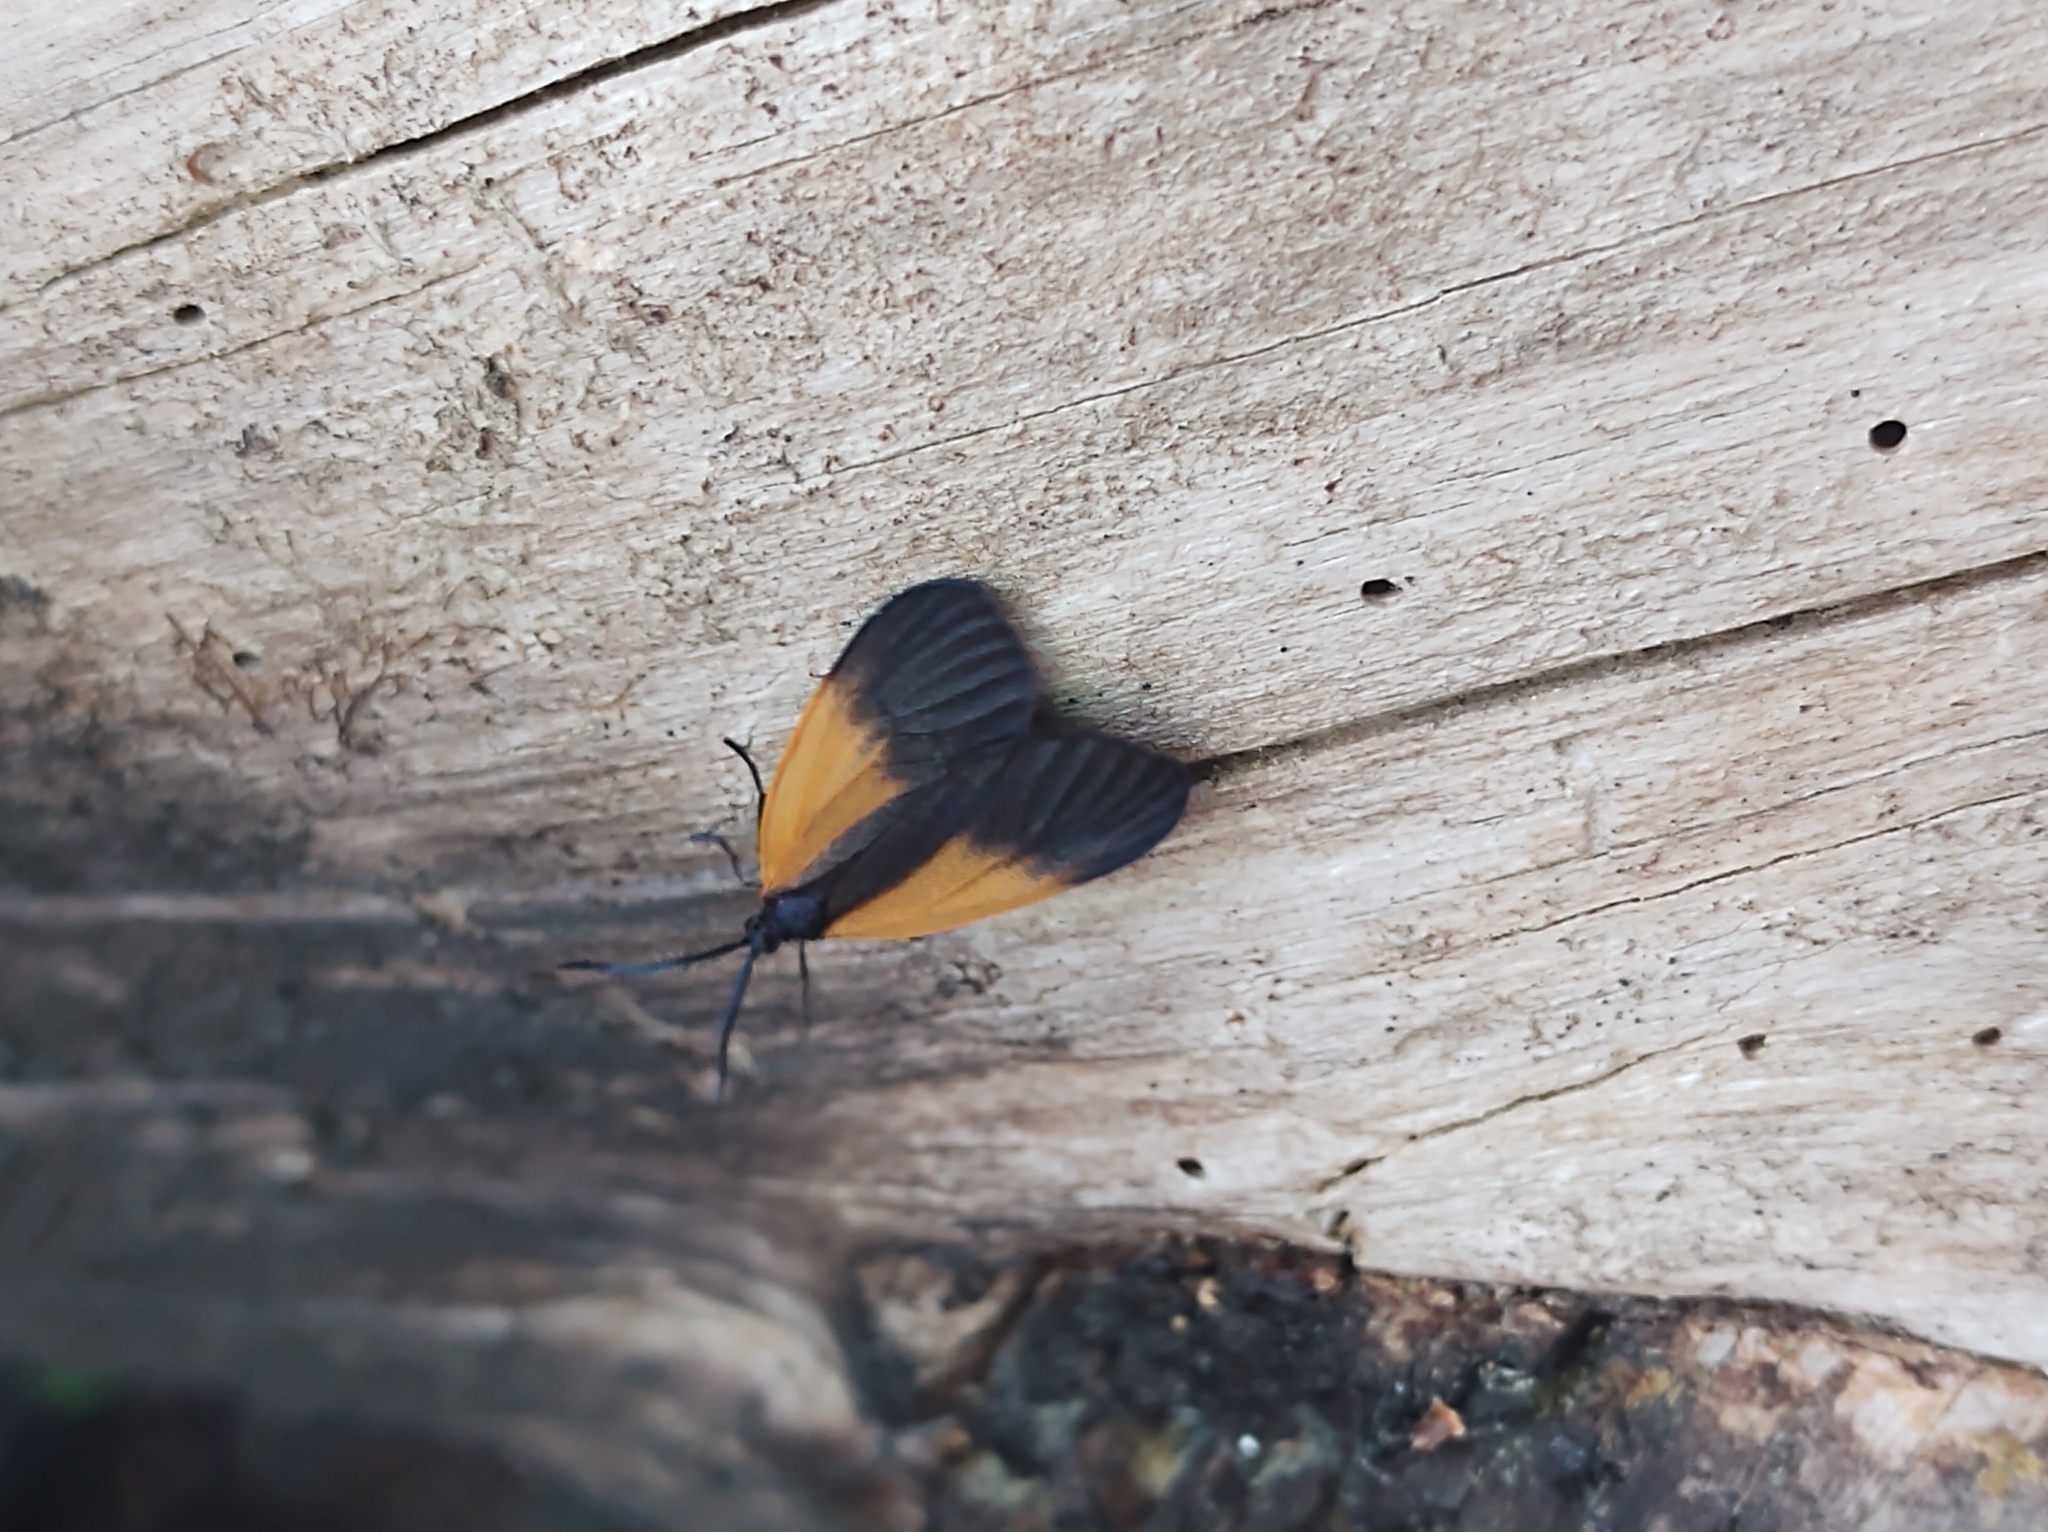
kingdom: Animalia
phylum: Arthropoda
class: Insecta
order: Lepidoptera
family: Zygaenidae
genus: Malthaca
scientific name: Malthaca dimidiata
